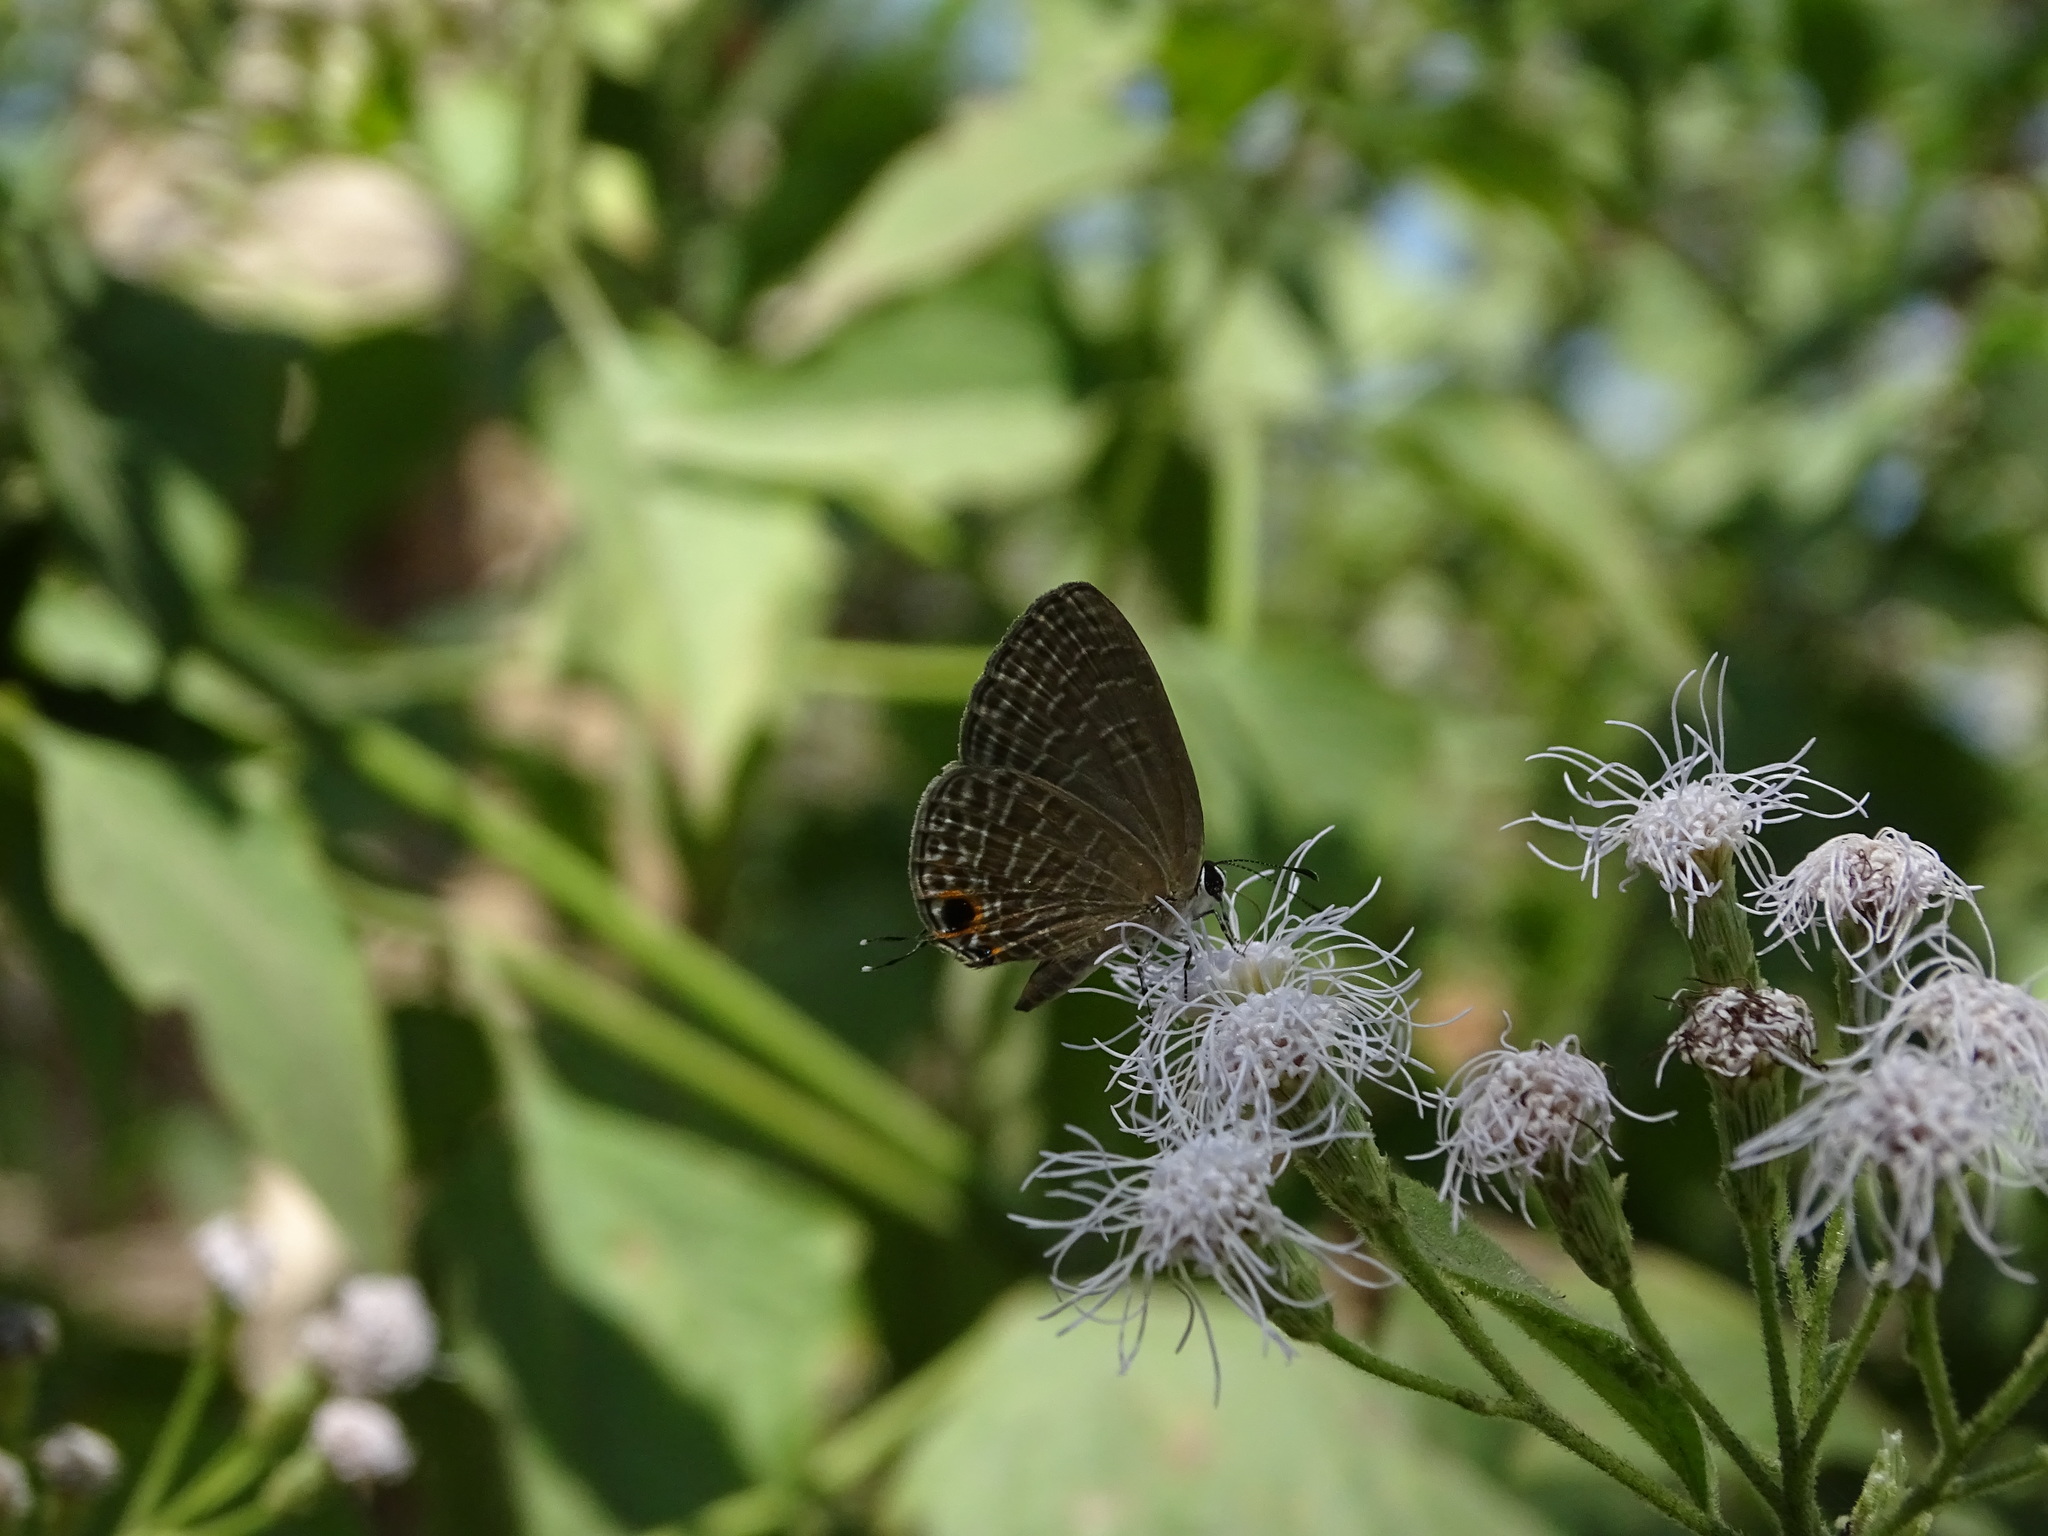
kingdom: Animalia
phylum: Arthropoda
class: Insecta
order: Lepidoptera
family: Lycaenidae
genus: Jamides
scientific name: Jamides bochus
